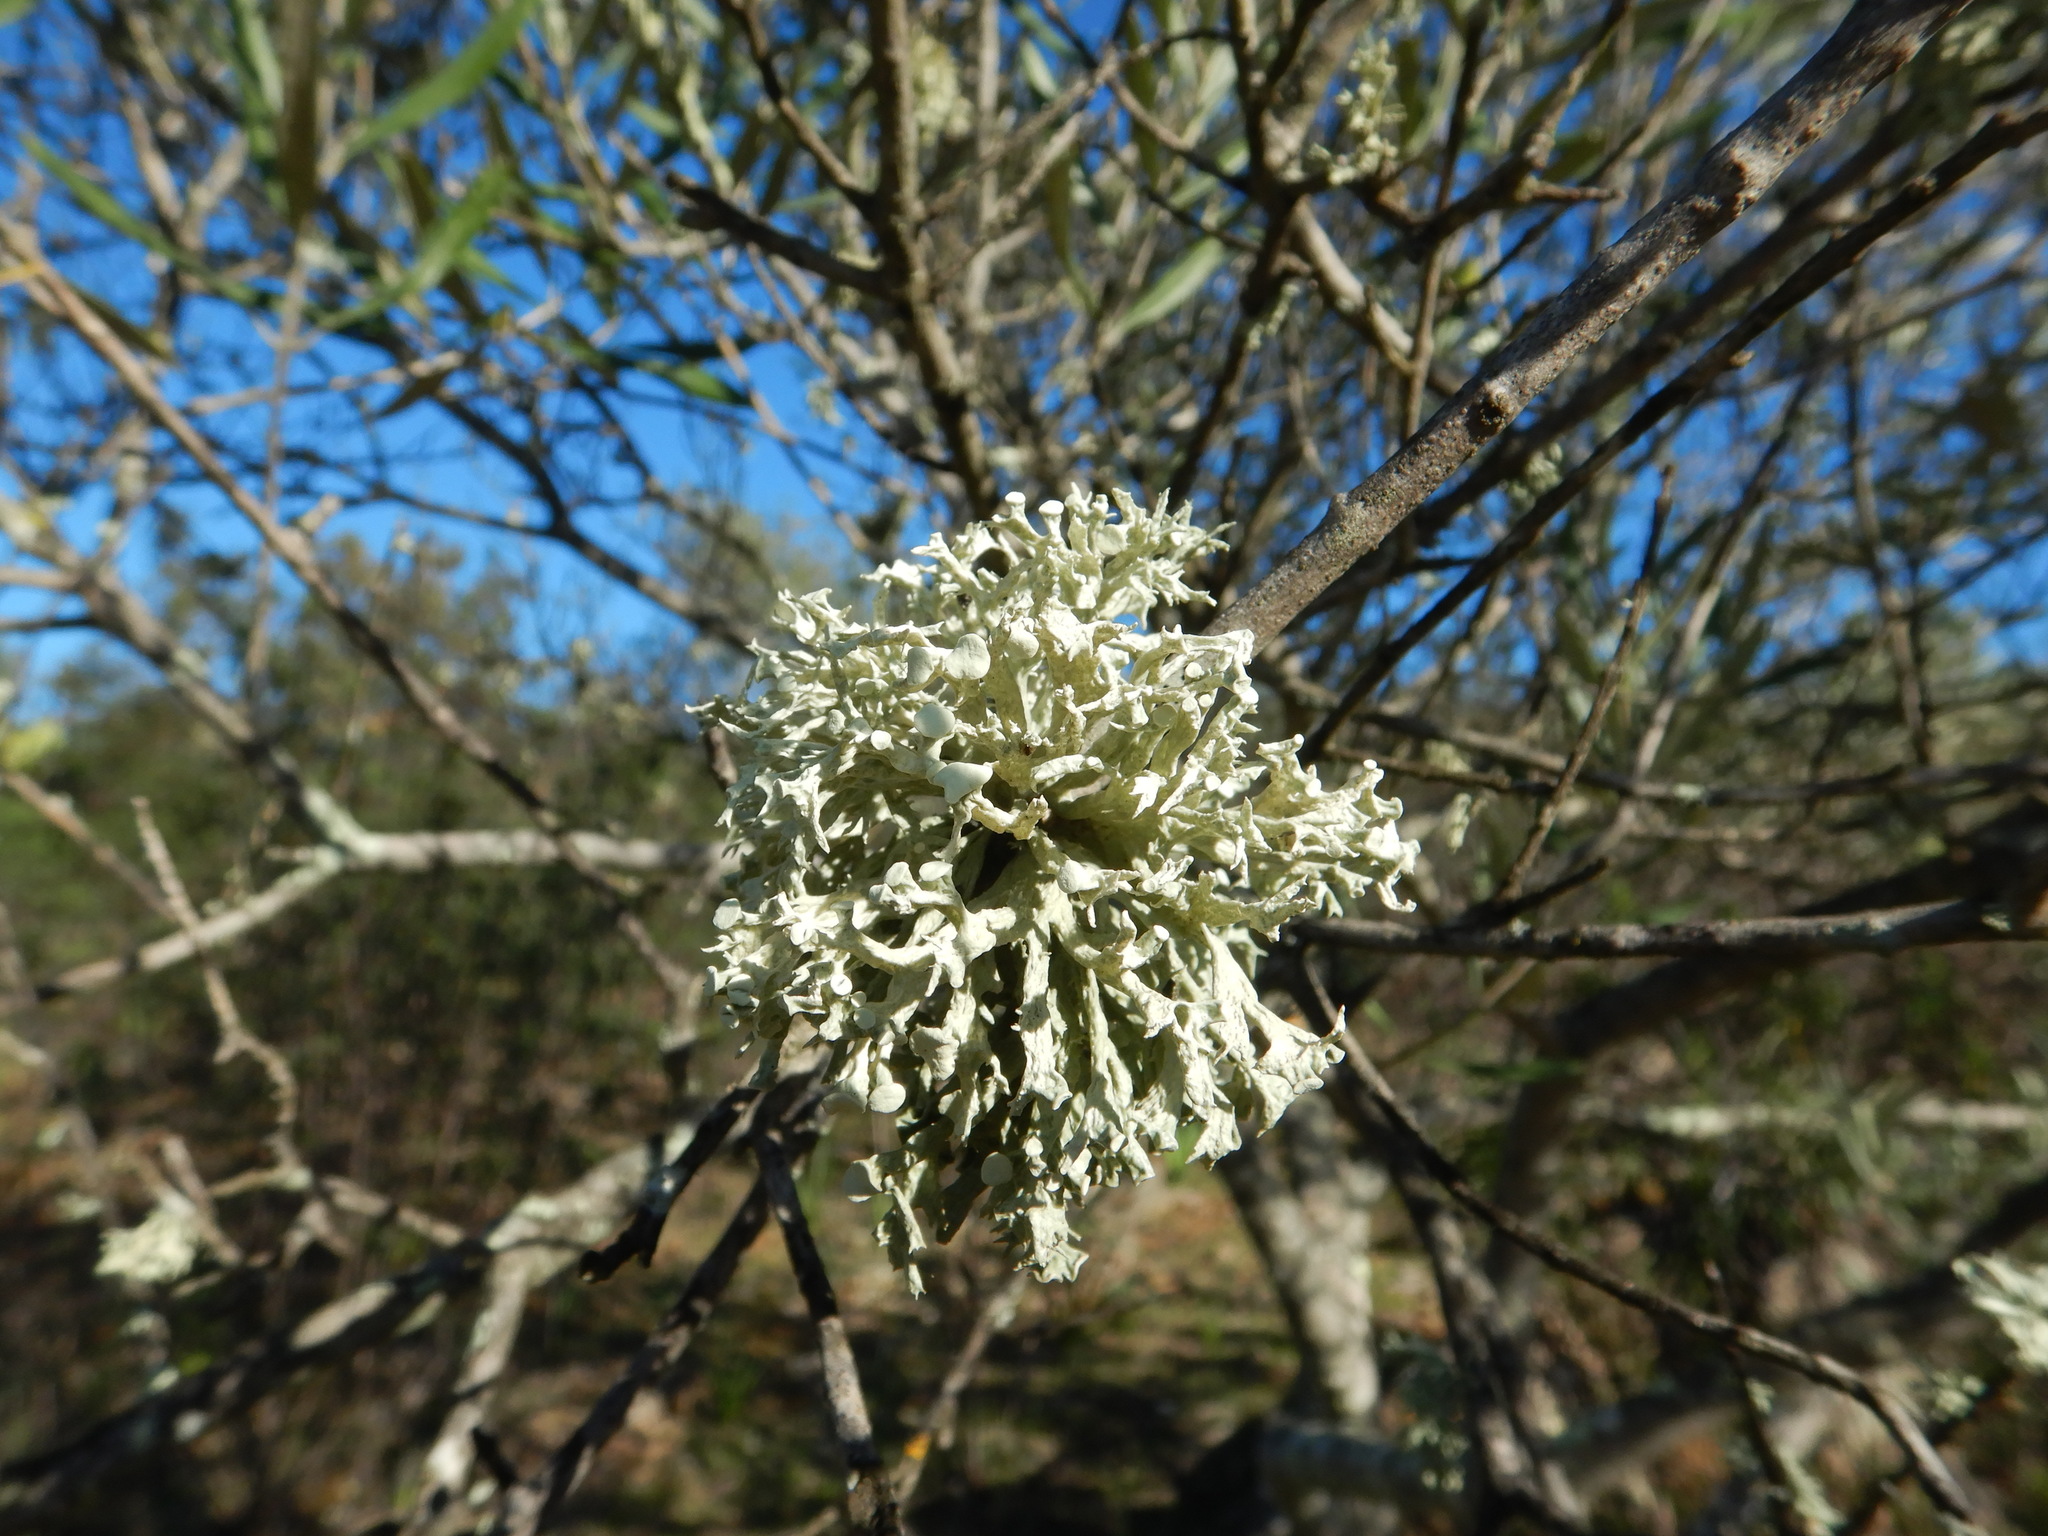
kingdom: Fungi
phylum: Ascomycota
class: Lecanoromycetes
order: Lecanorales
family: Ramalinaceae
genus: Ramalina
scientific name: Ramalina fastigiata
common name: Dotted ribbon lichen
